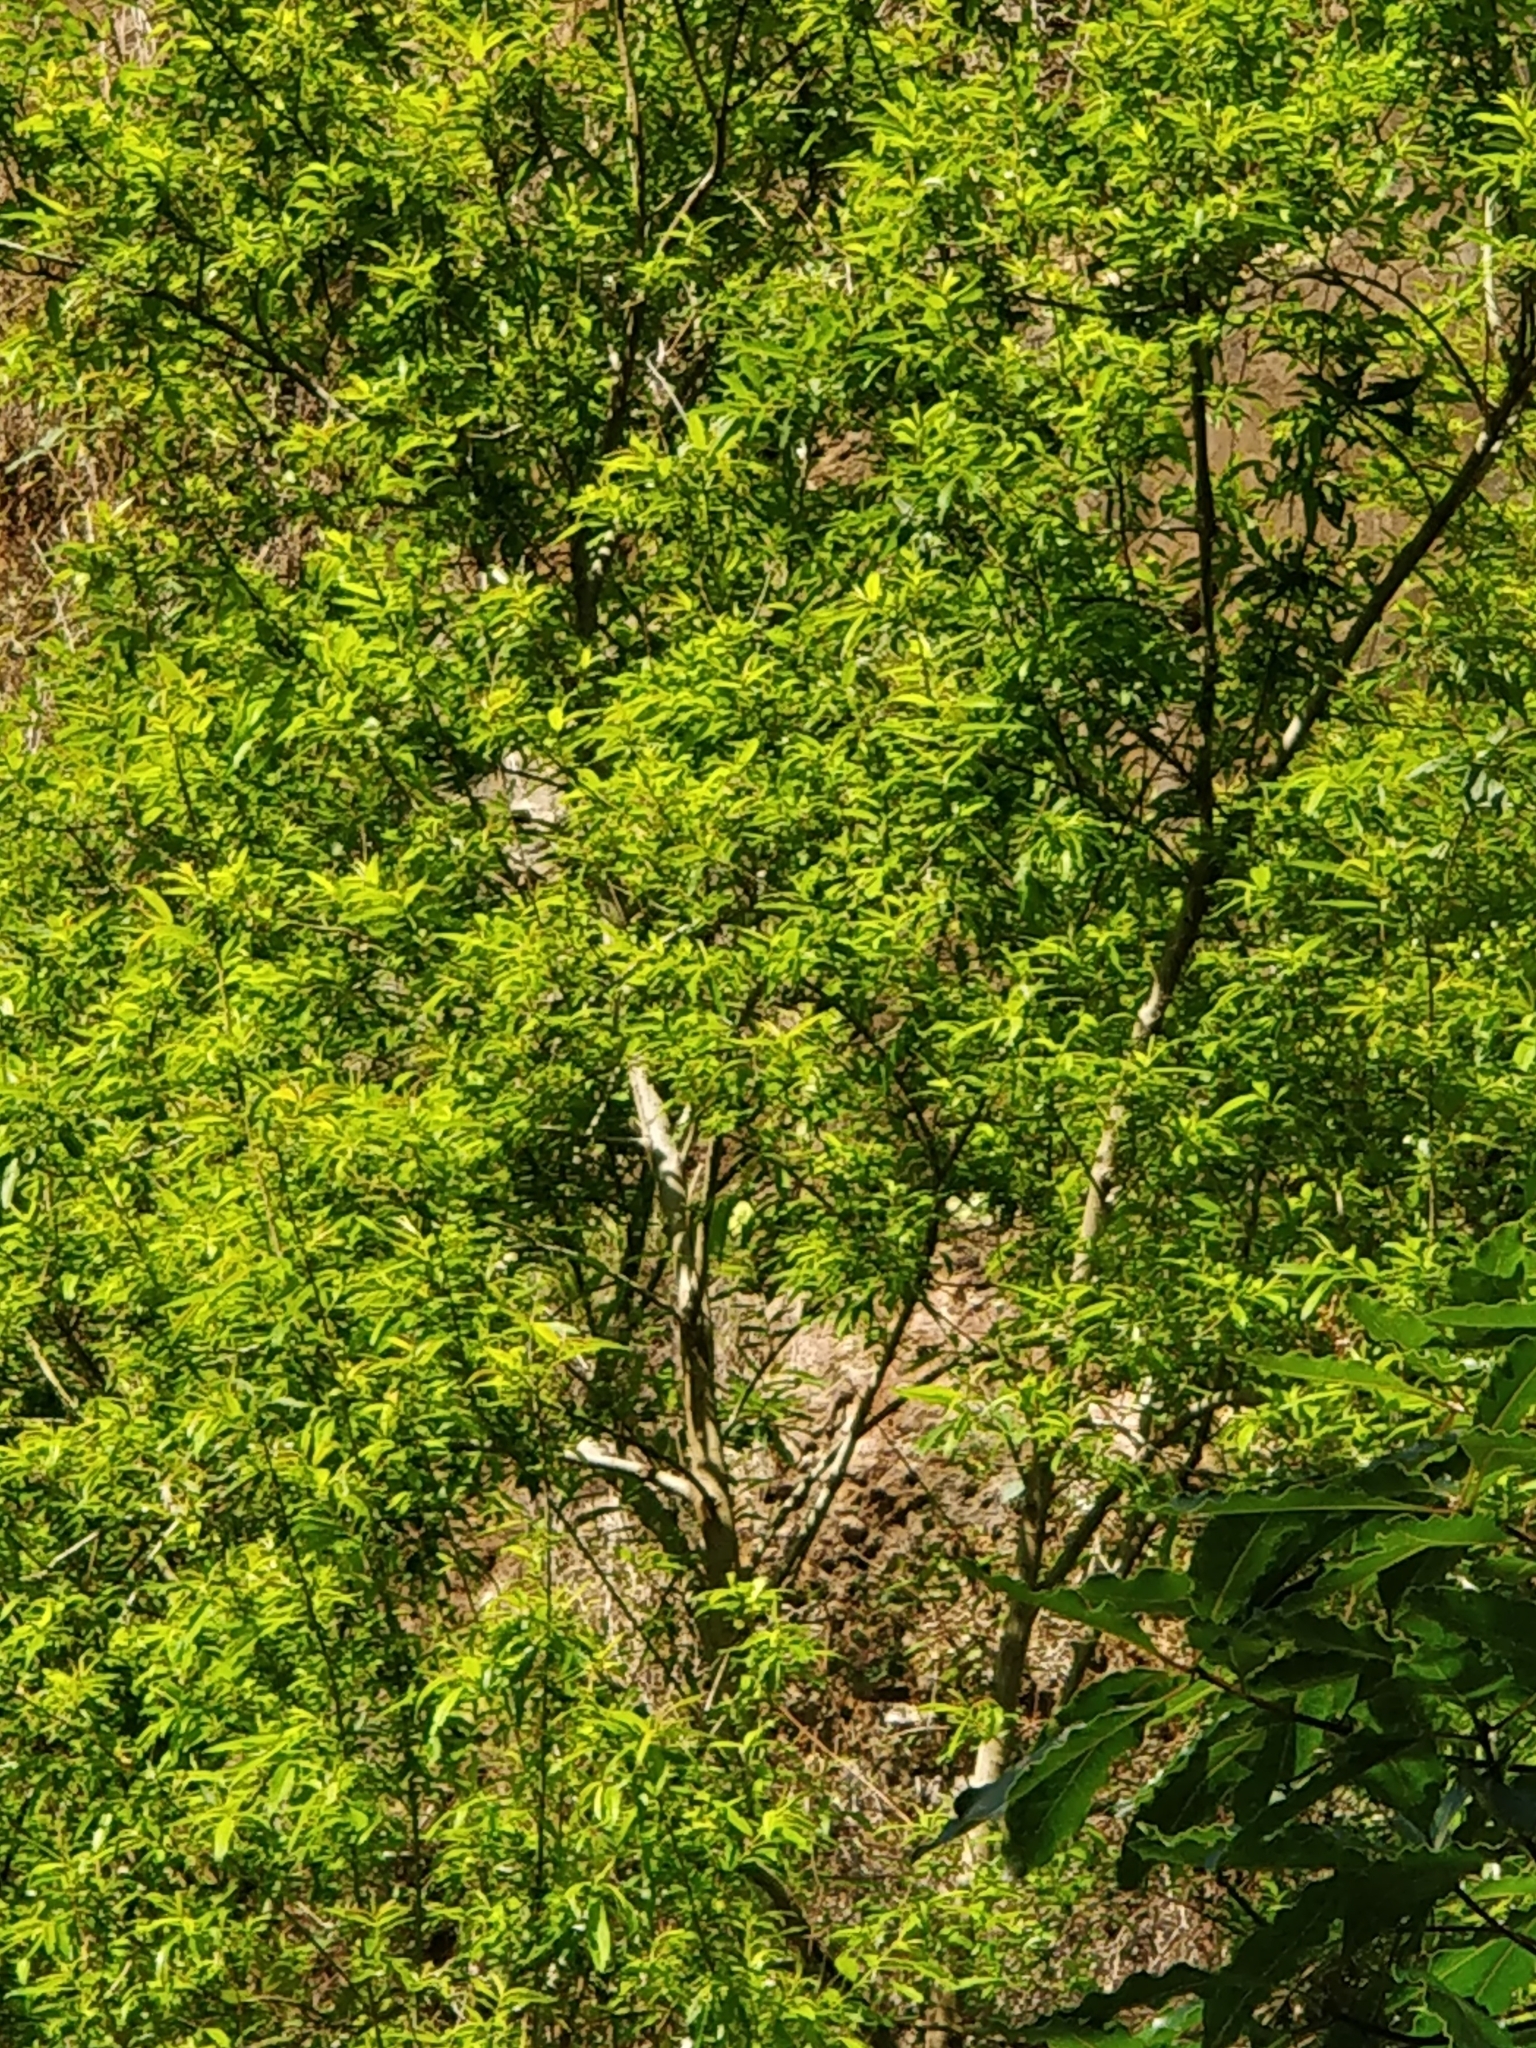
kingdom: Plantae
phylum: Tracheophyta
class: Magnoliopsida
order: Malpighiales
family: Salicaceae
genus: Salix
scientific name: Salix canariensis
